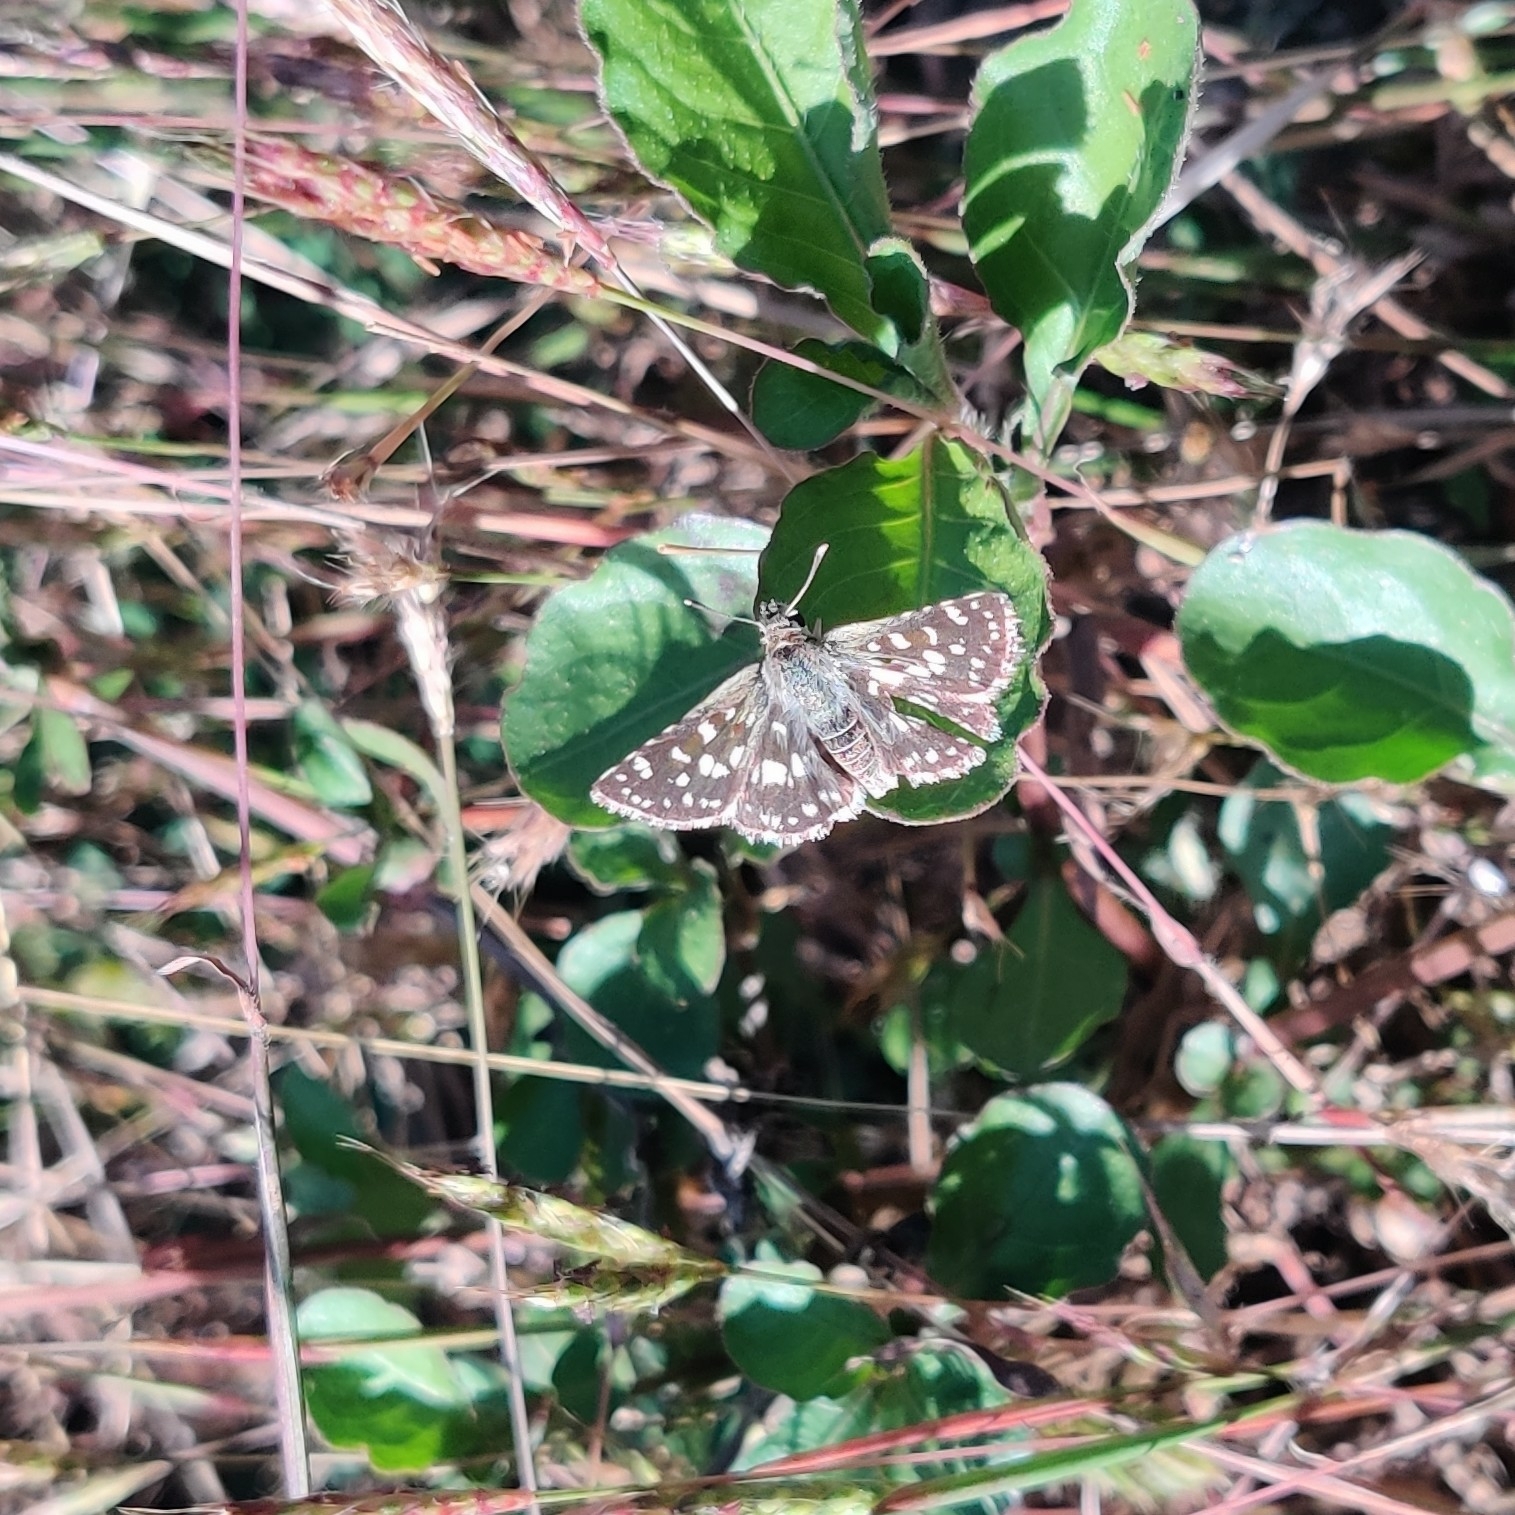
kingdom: Animalia
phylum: Arthropoda
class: Insecta
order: Lepidoptera
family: Hesperiidae
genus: Spialia
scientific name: Spialia galba
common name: Indian skipper
